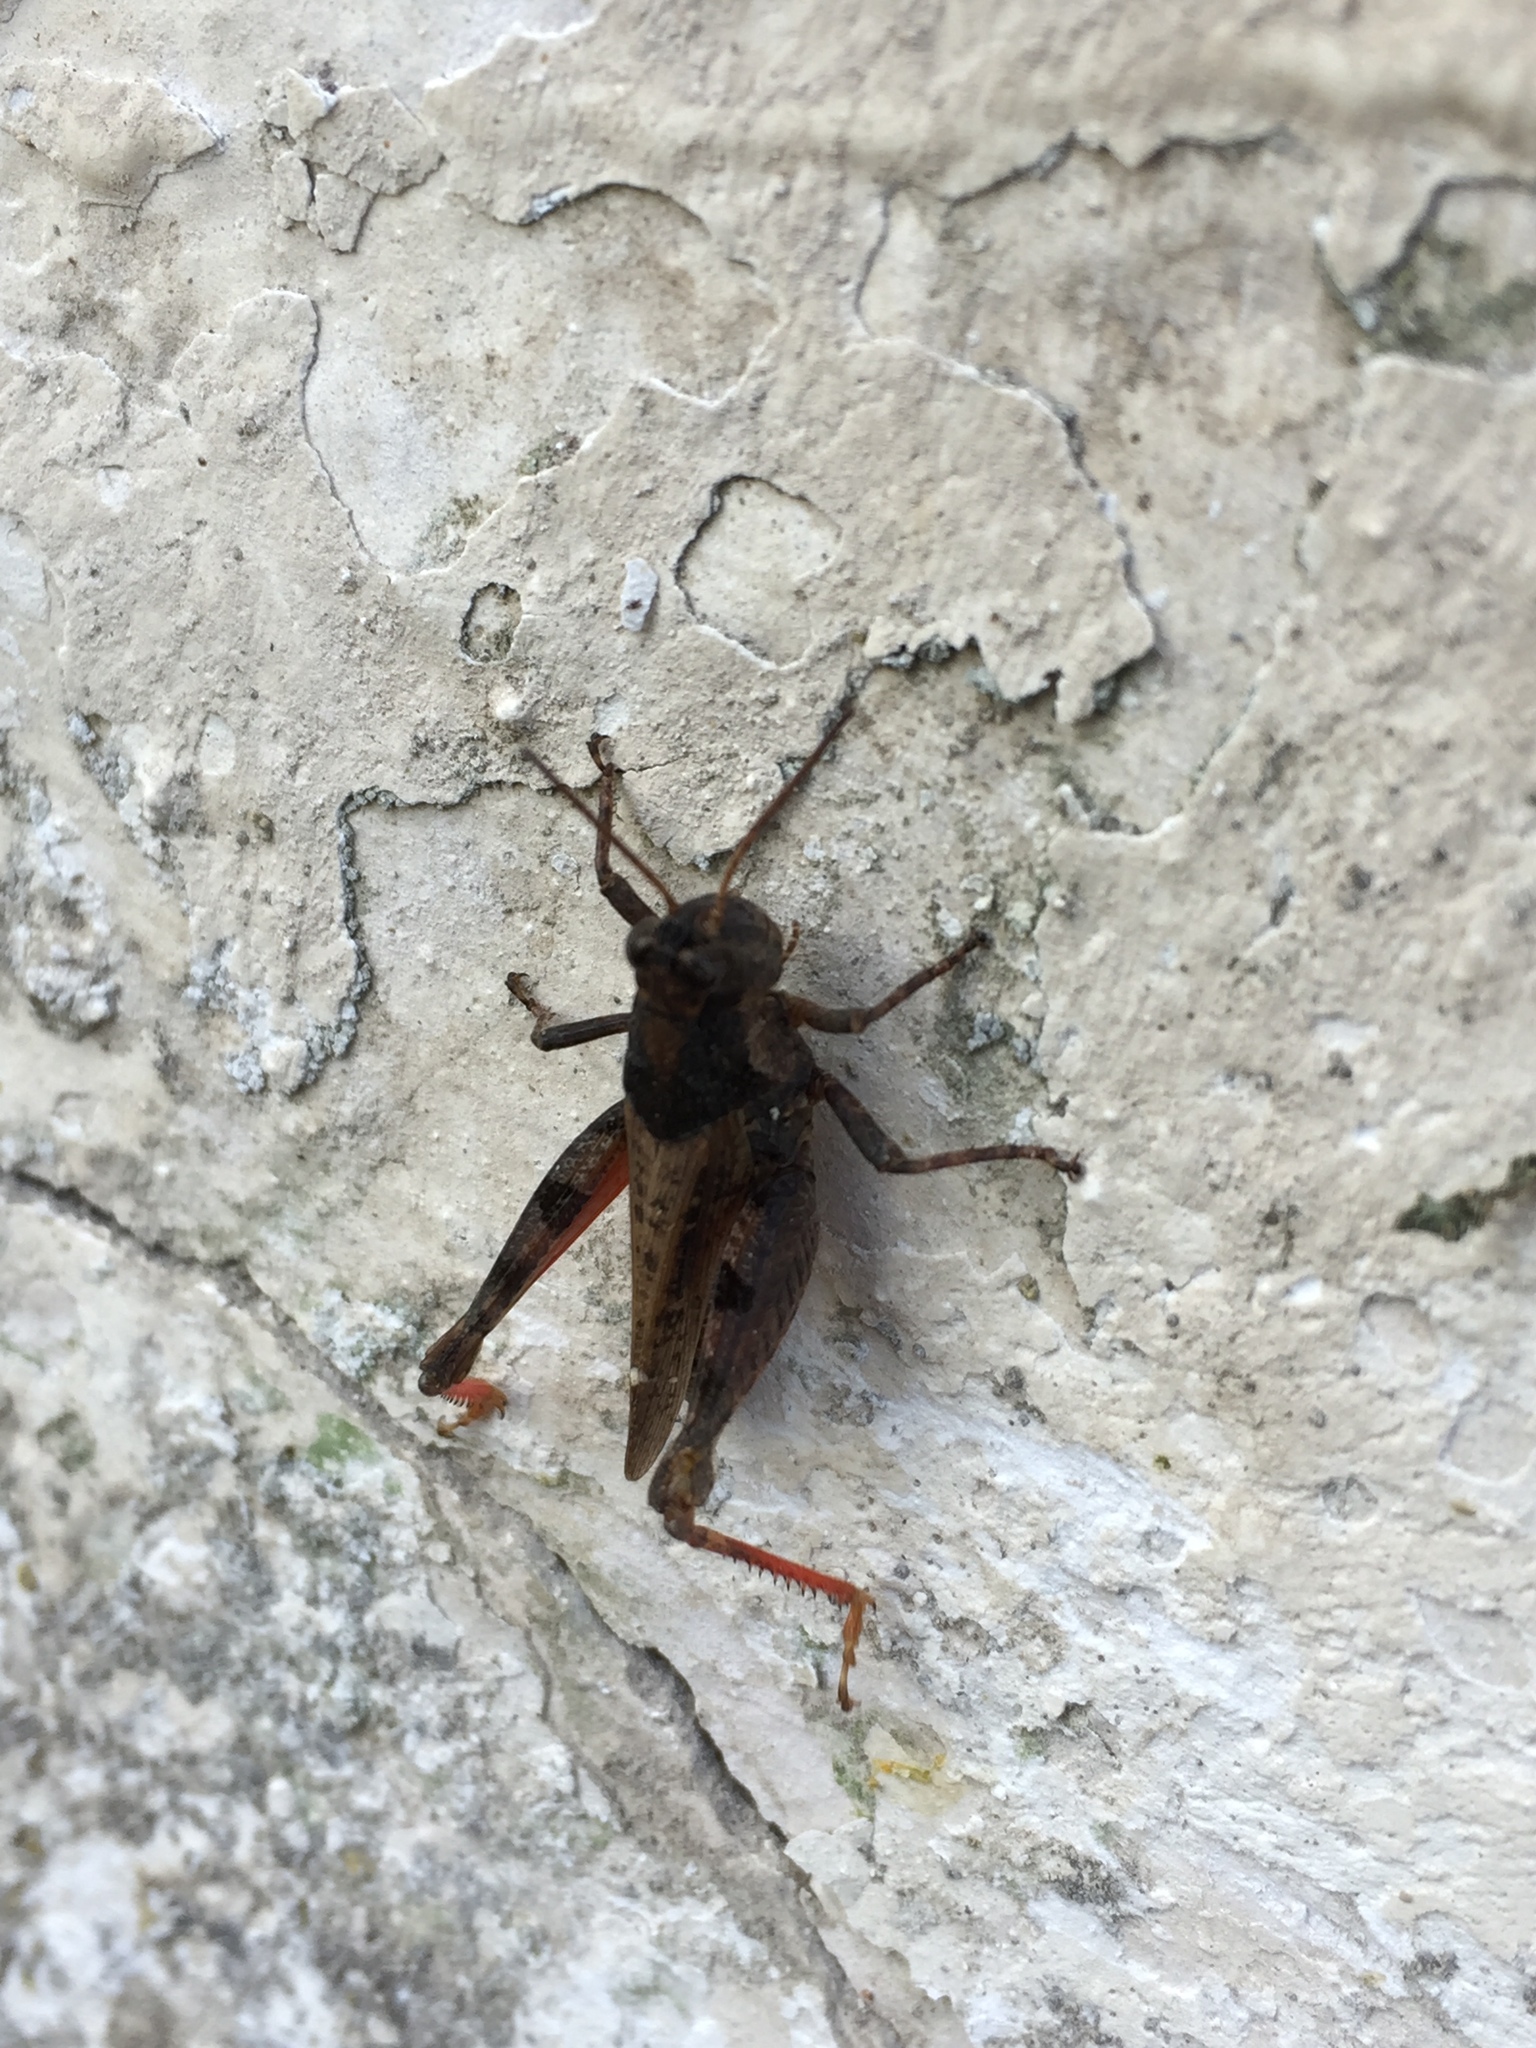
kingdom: Animalia
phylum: Arthropoda
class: Insecta
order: Orthoptera
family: Acrididae
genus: Baeacris
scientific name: Baeacris punctulata
